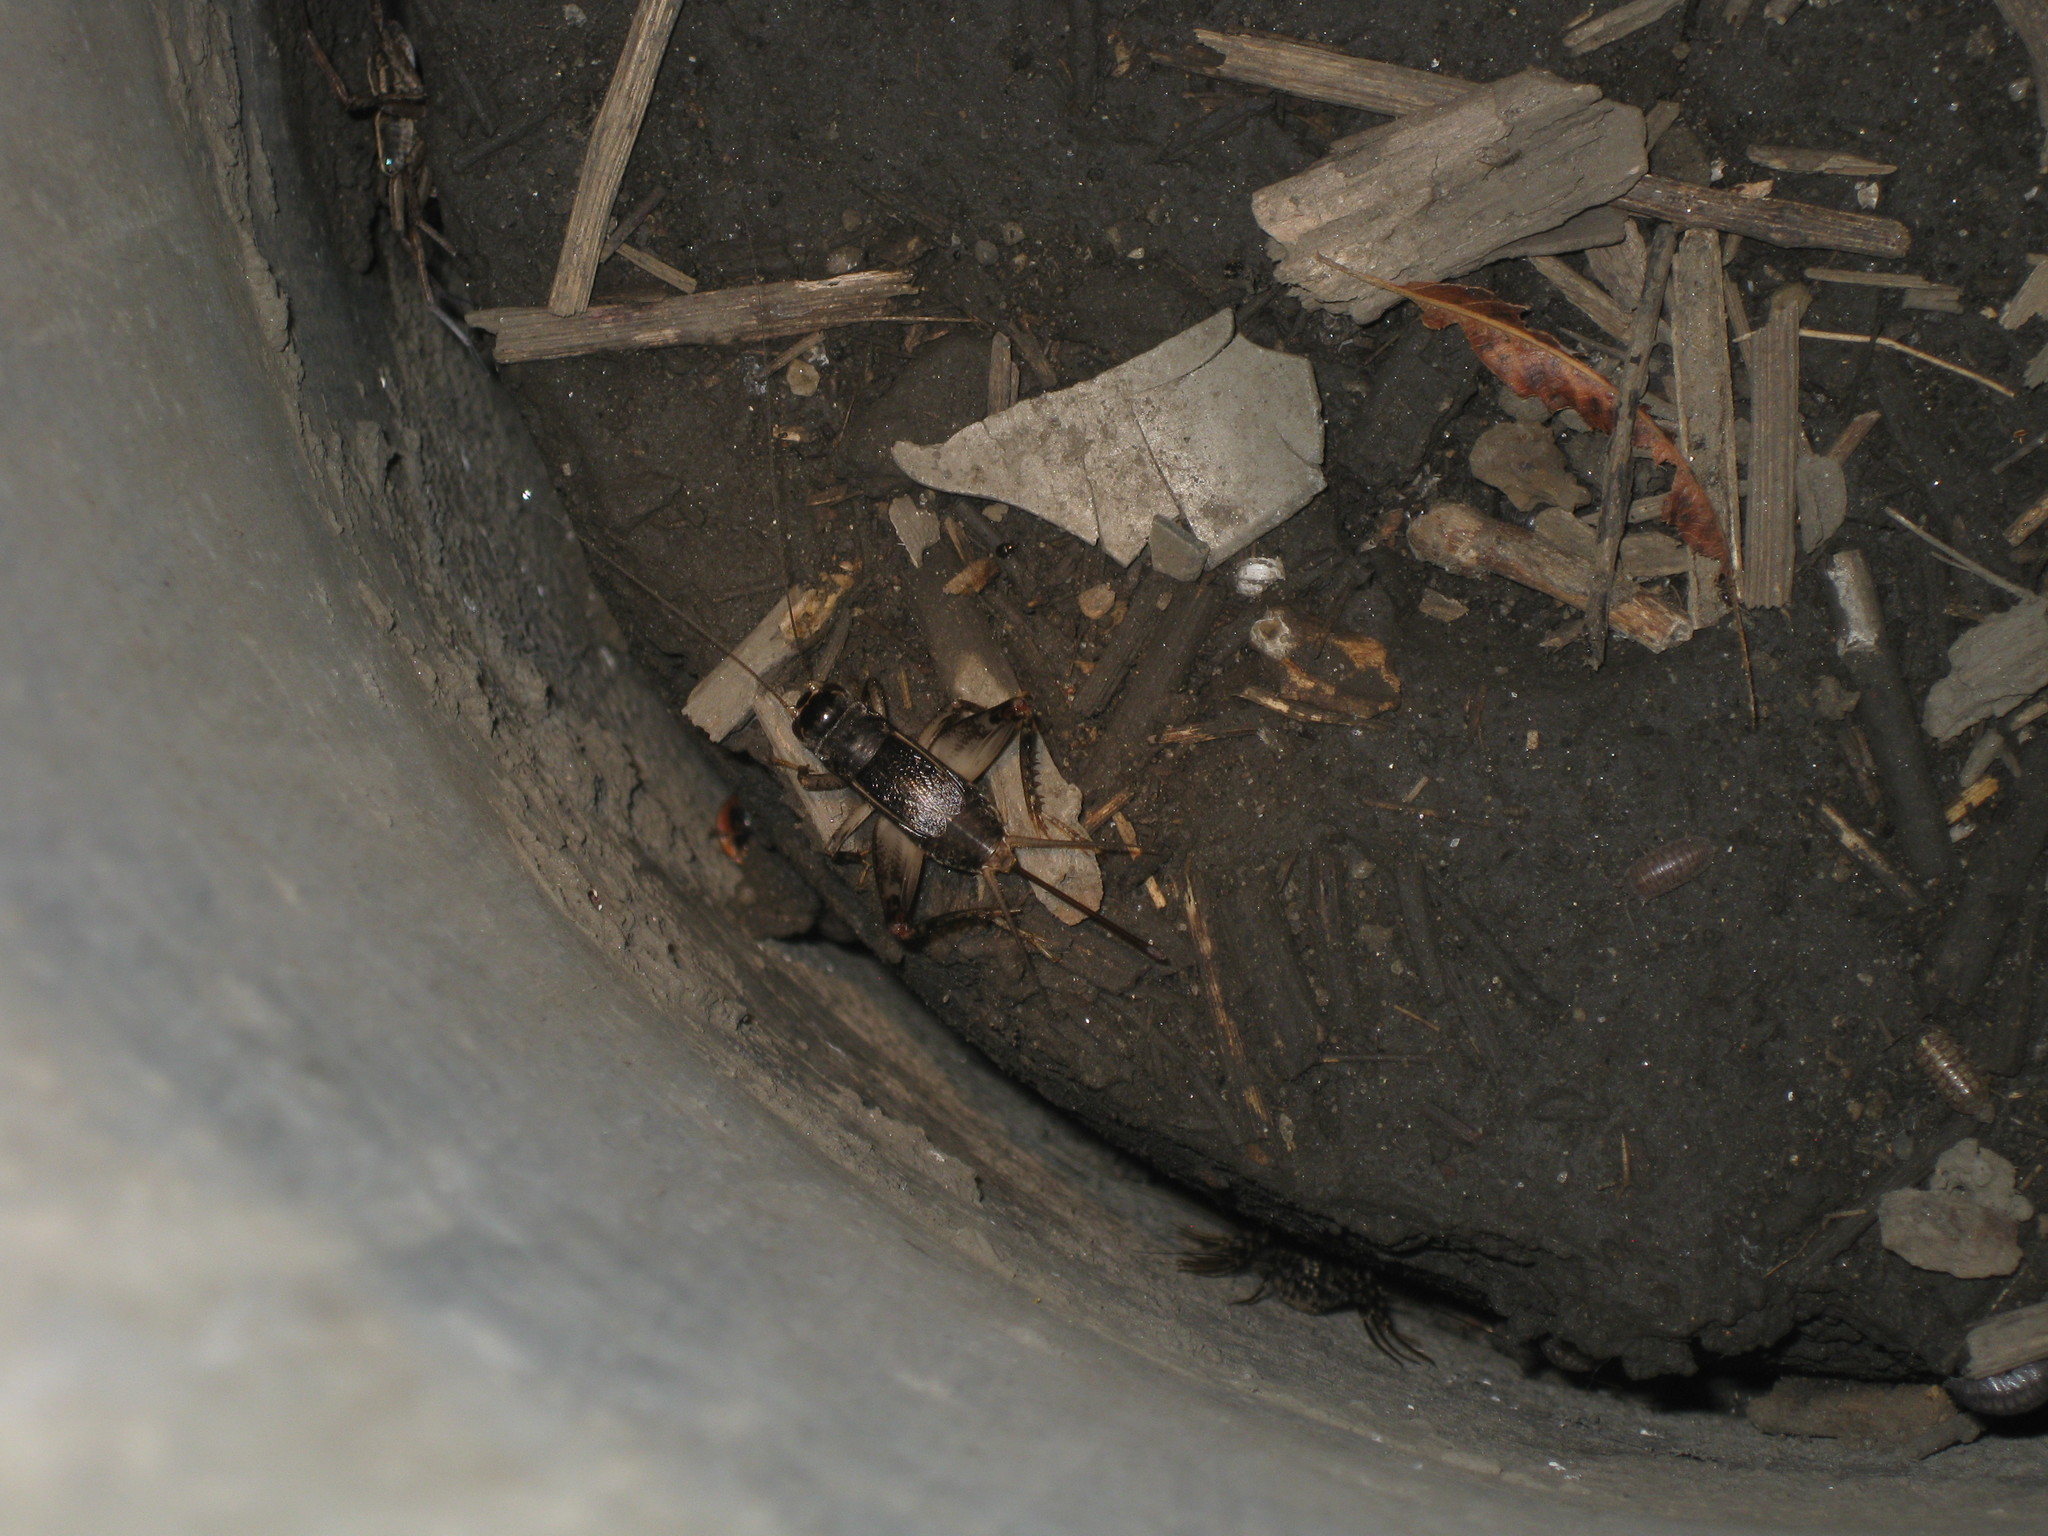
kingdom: Animalia
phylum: Arthropoda
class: Insecta
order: Orthoptera
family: Gryllidae
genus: Velarifictorus
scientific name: Velarifictorus micado
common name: Japanese burrowing cricket
